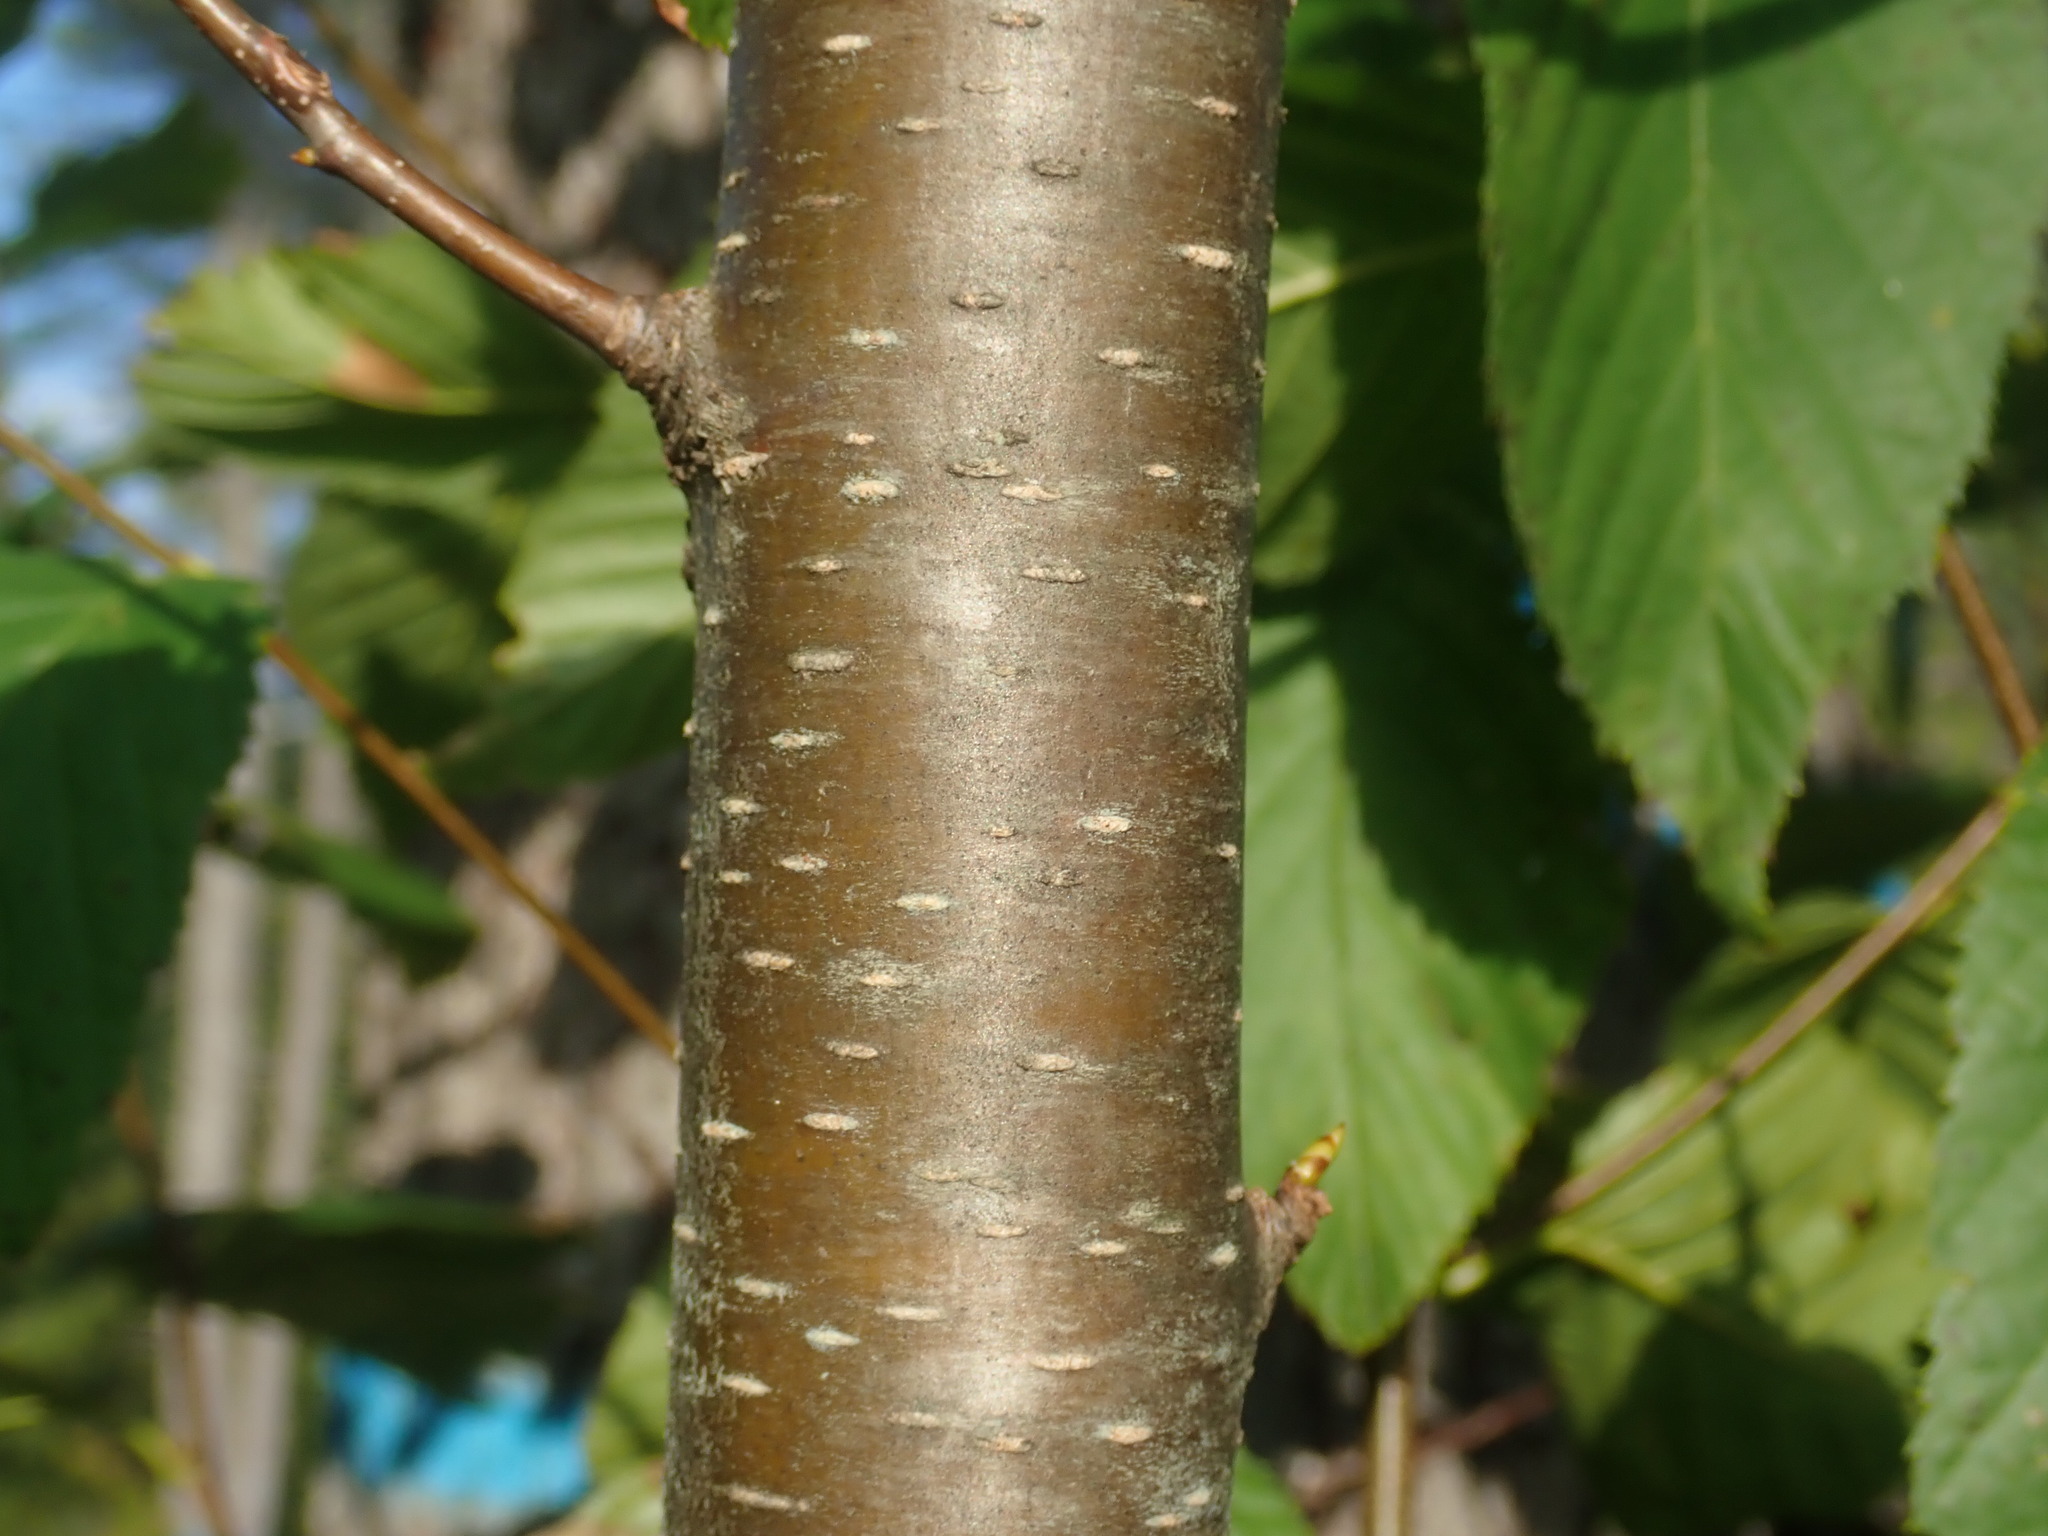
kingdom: Plantae
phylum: Tracheophyta
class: Magnoliopsida
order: Fagales
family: Betulaceae
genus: Betula
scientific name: Betula lenta
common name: Black birch
